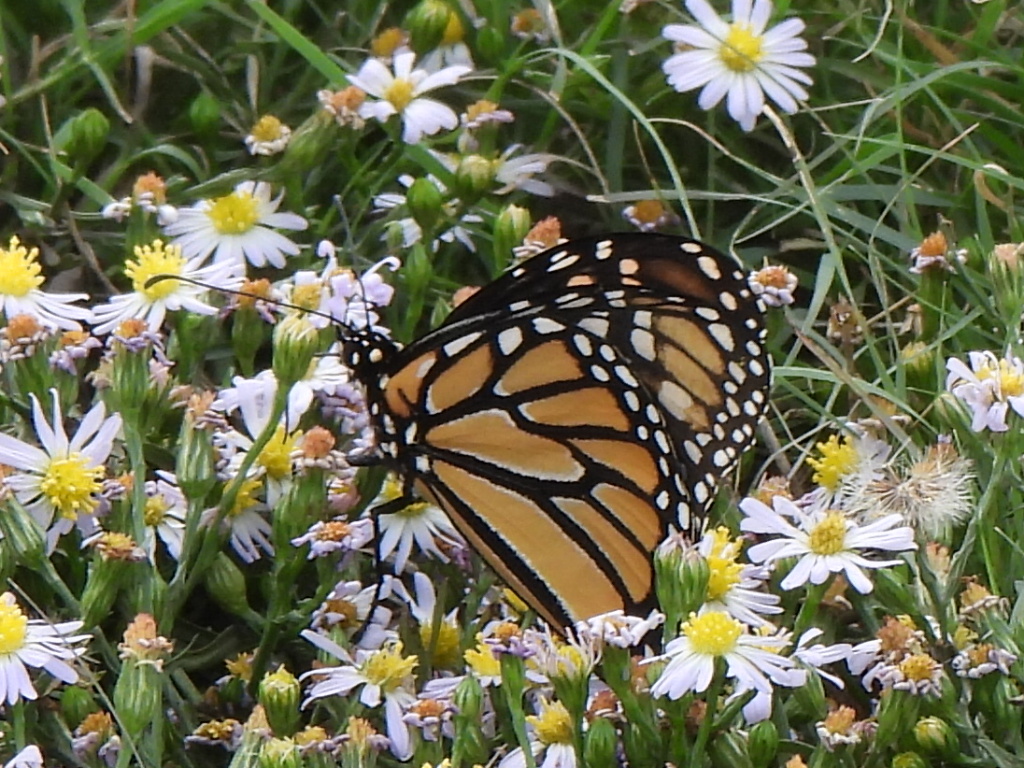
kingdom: Animalia
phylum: Arthropoda
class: Insecta
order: Lepidoptera
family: Nymphalidae
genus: Danaus
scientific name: Danaus plexippus
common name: Monarch
